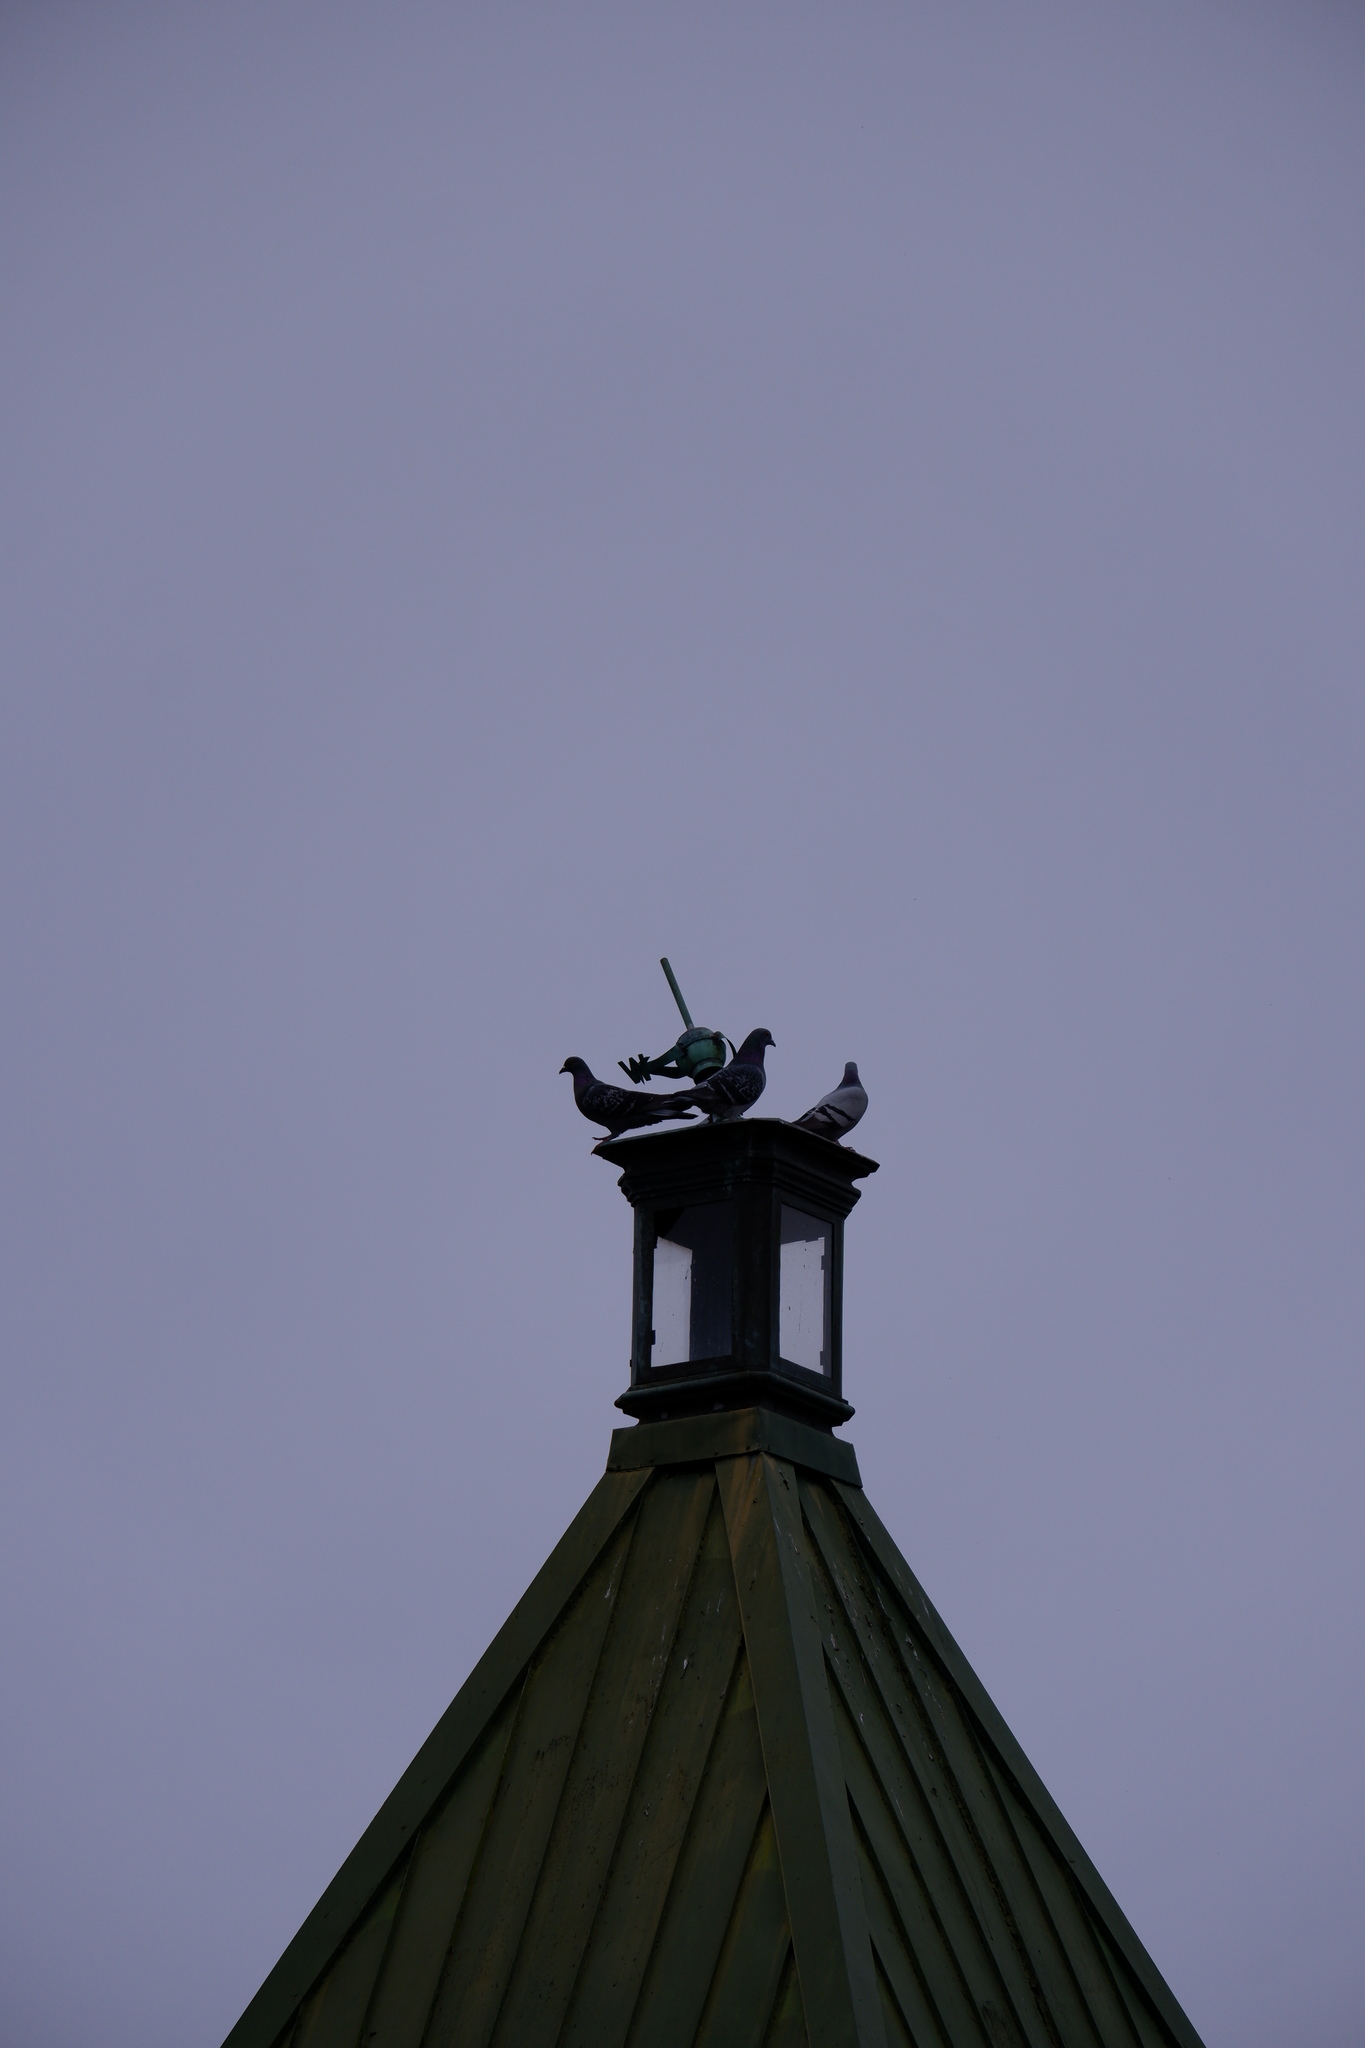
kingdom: Animalia
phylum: Chordata
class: Aves
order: Columbiformes
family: Columbidae
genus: Columba
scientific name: Columba livia
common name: Rock pigeon
